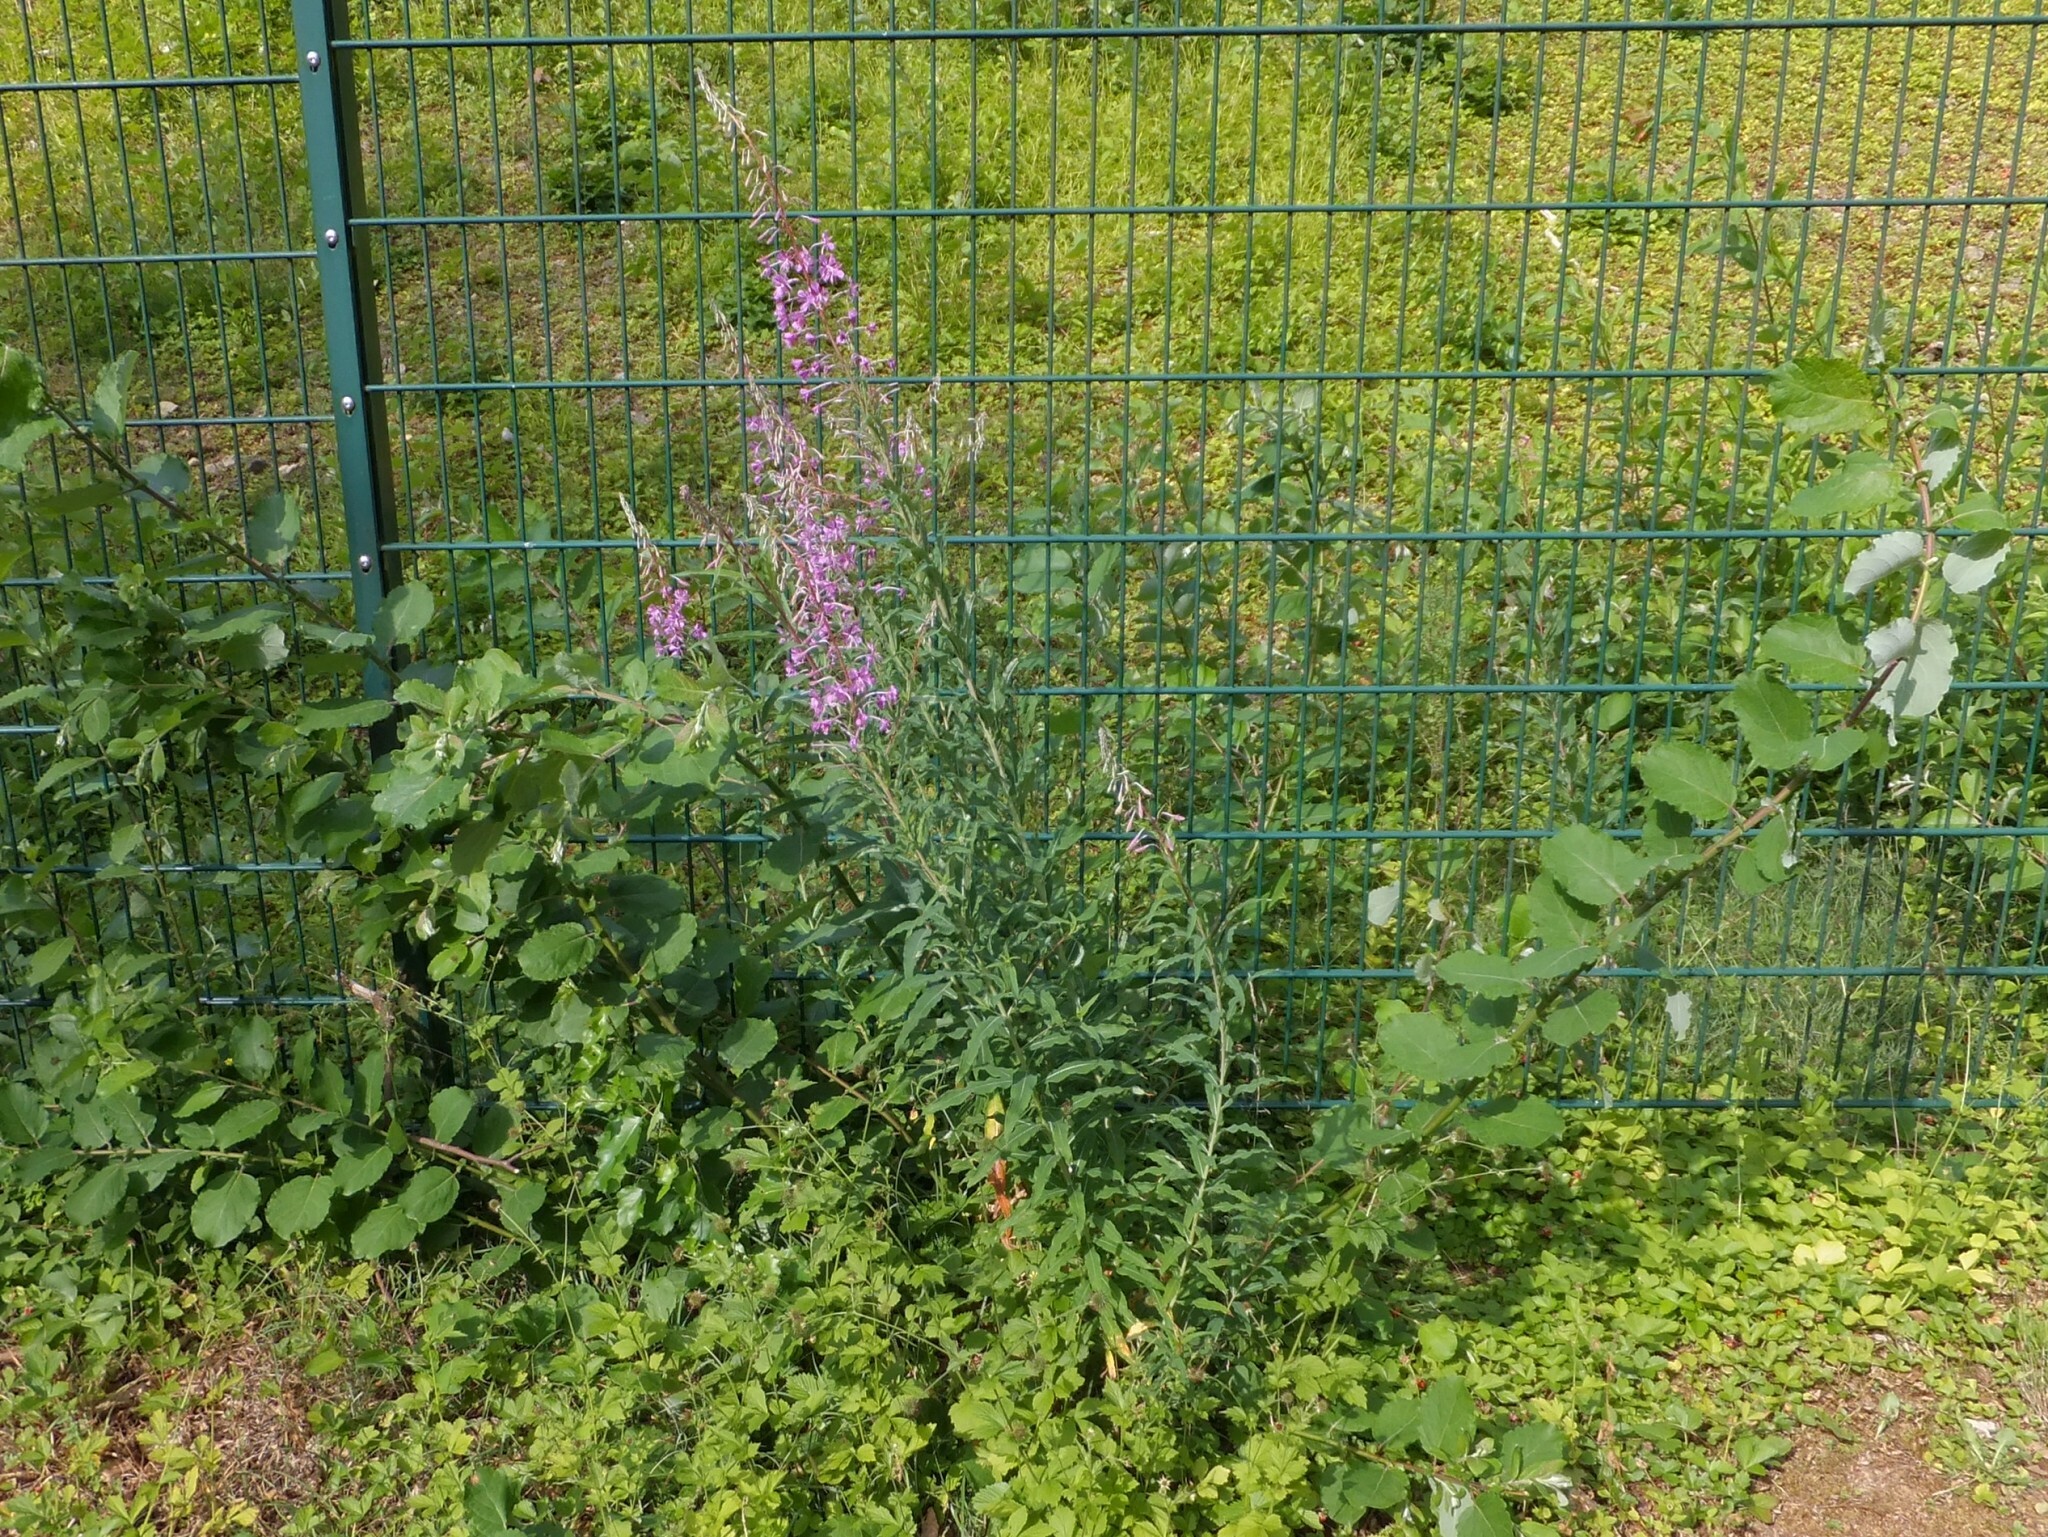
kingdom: Plantae
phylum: Tracheophyta
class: Magnoliopsida
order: Myrtales
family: Onagraceae
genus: Chamaenerion
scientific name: Chamaenerion angustifolium
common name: Fireweed
